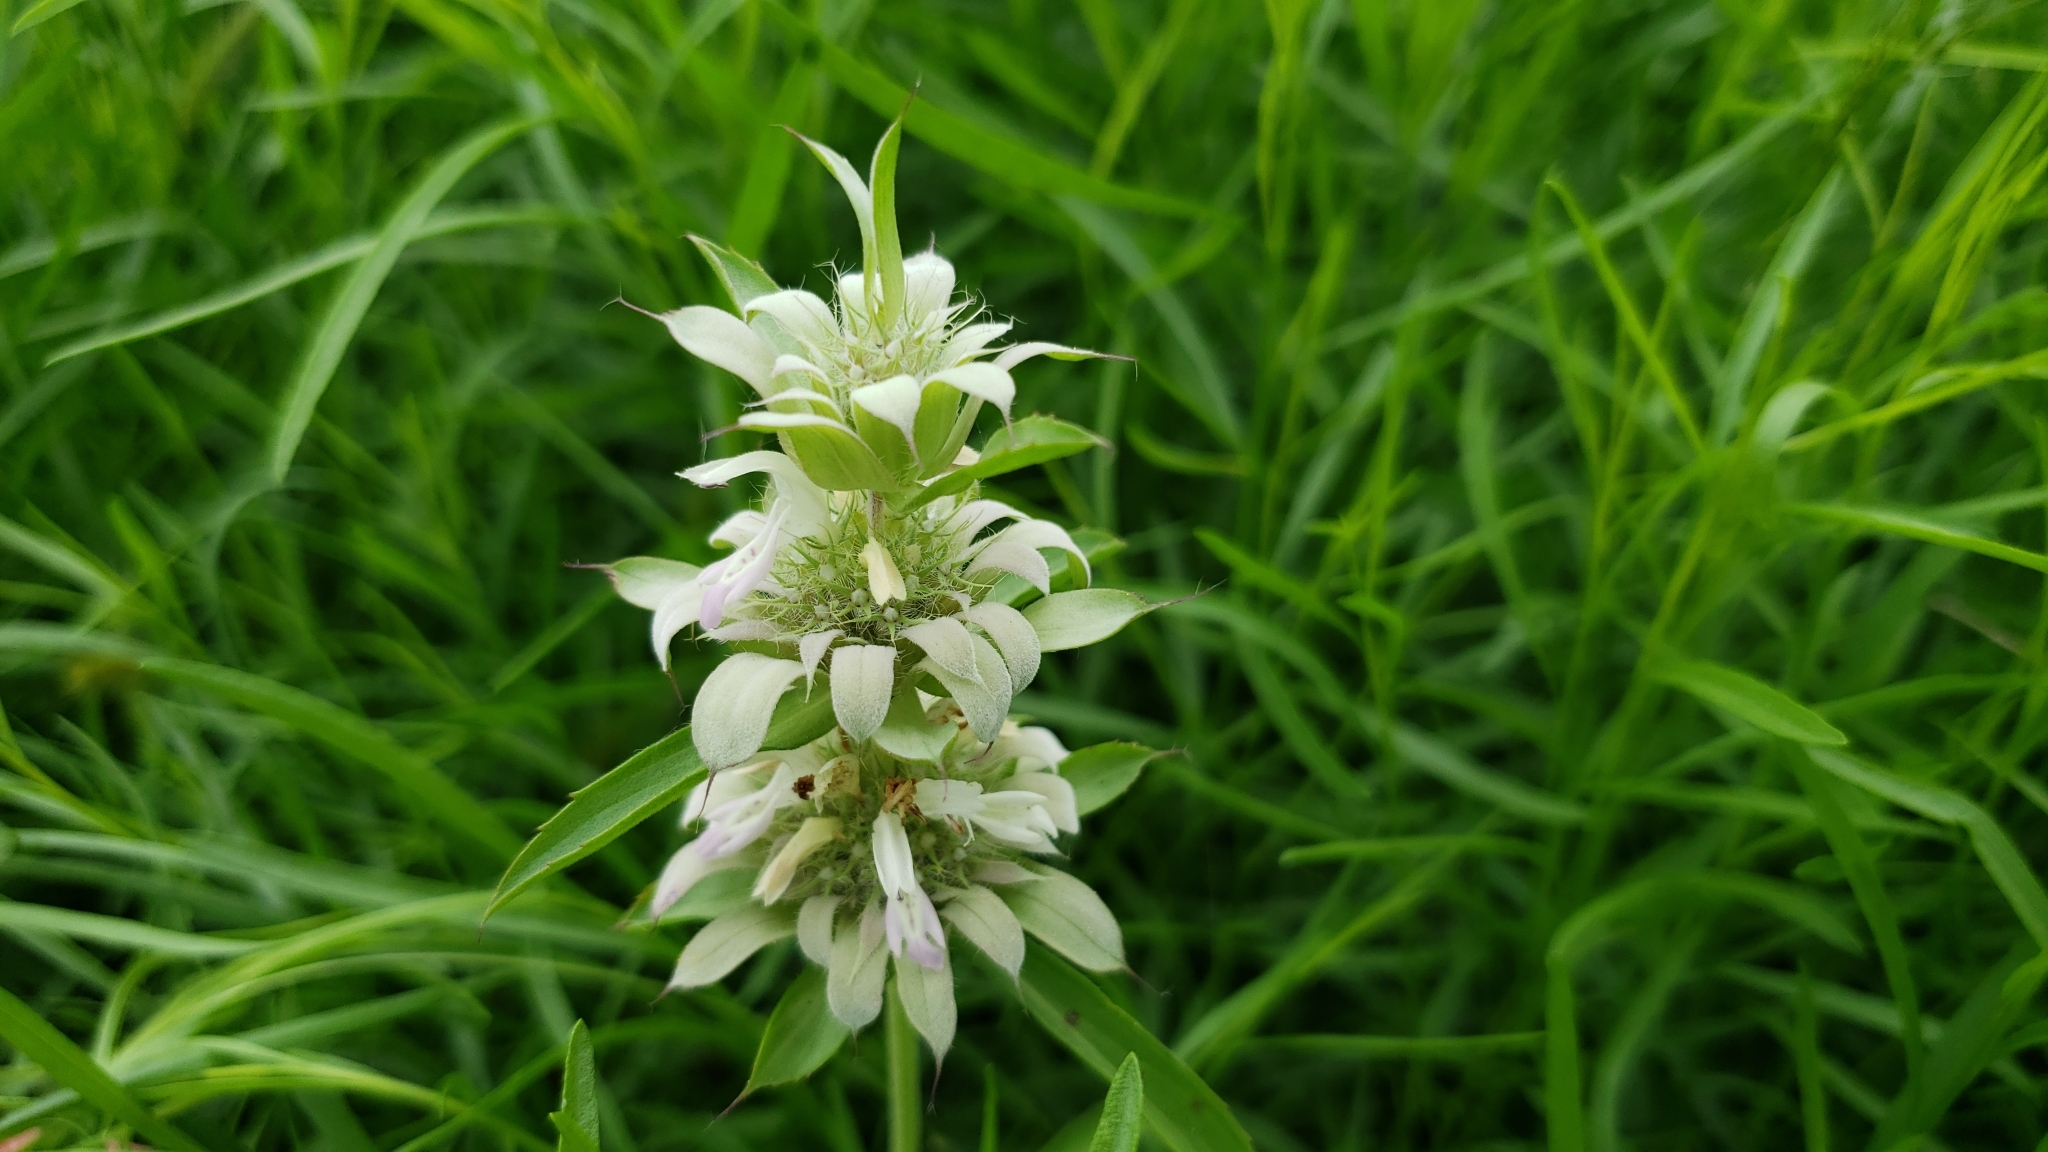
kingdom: Plantae
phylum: Tracheophyta
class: Magnoliopsida
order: Lamiales
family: Lamiaceae
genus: Monarda
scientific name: Monarda citriodora
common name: Lemon beebalm
